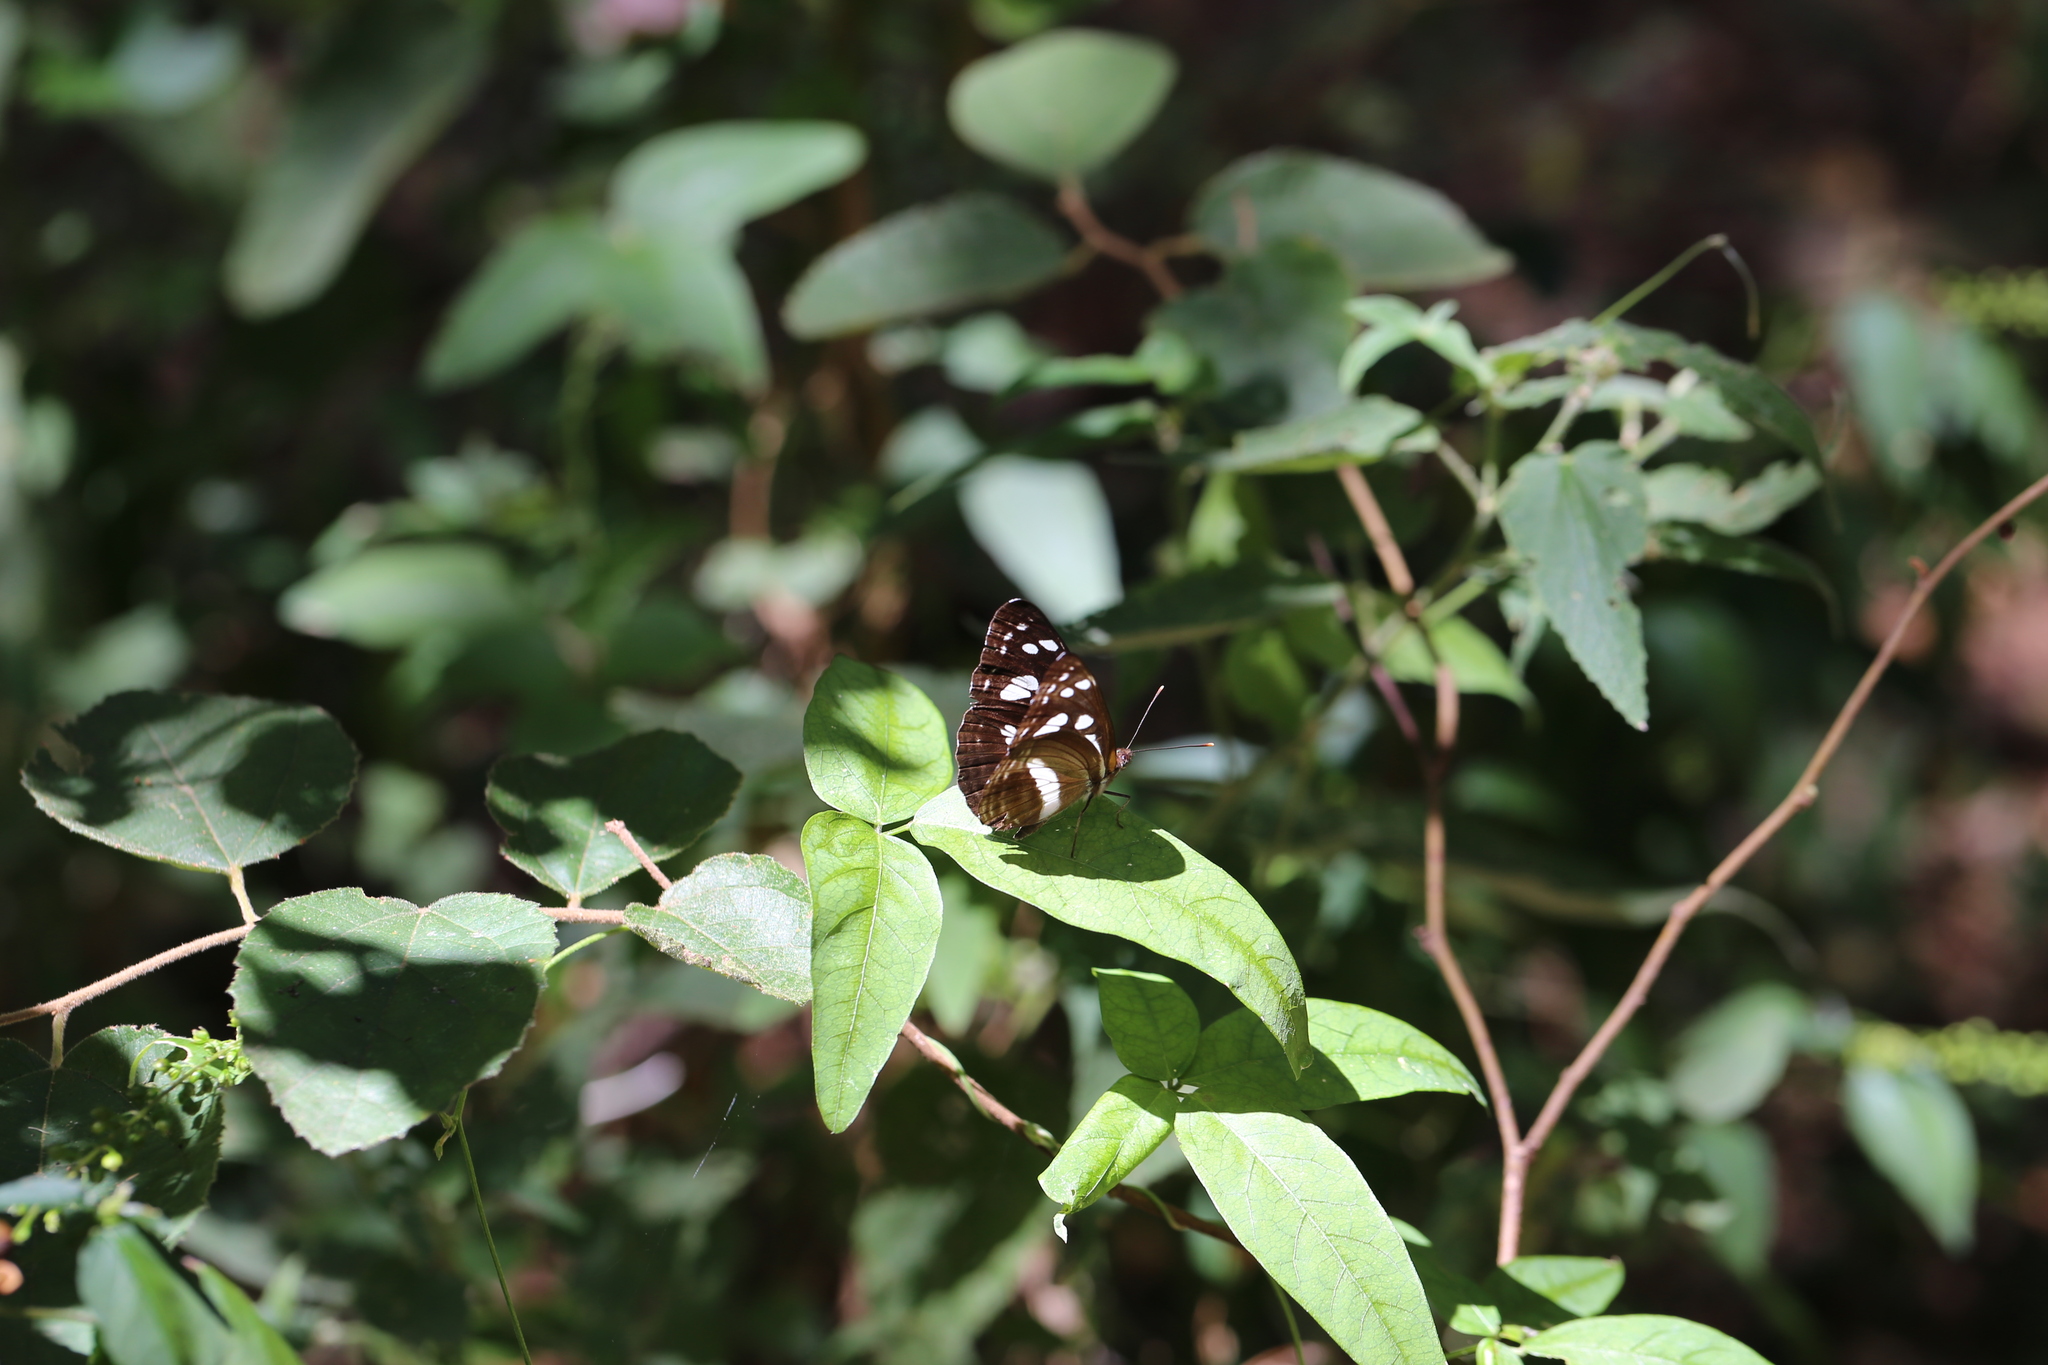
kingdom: Animalia
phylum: Arthropoda
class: Insecta
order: Lepidoptera
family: Nymphalidae
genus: Phaedyma
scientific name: Phaedyma shepherdi
